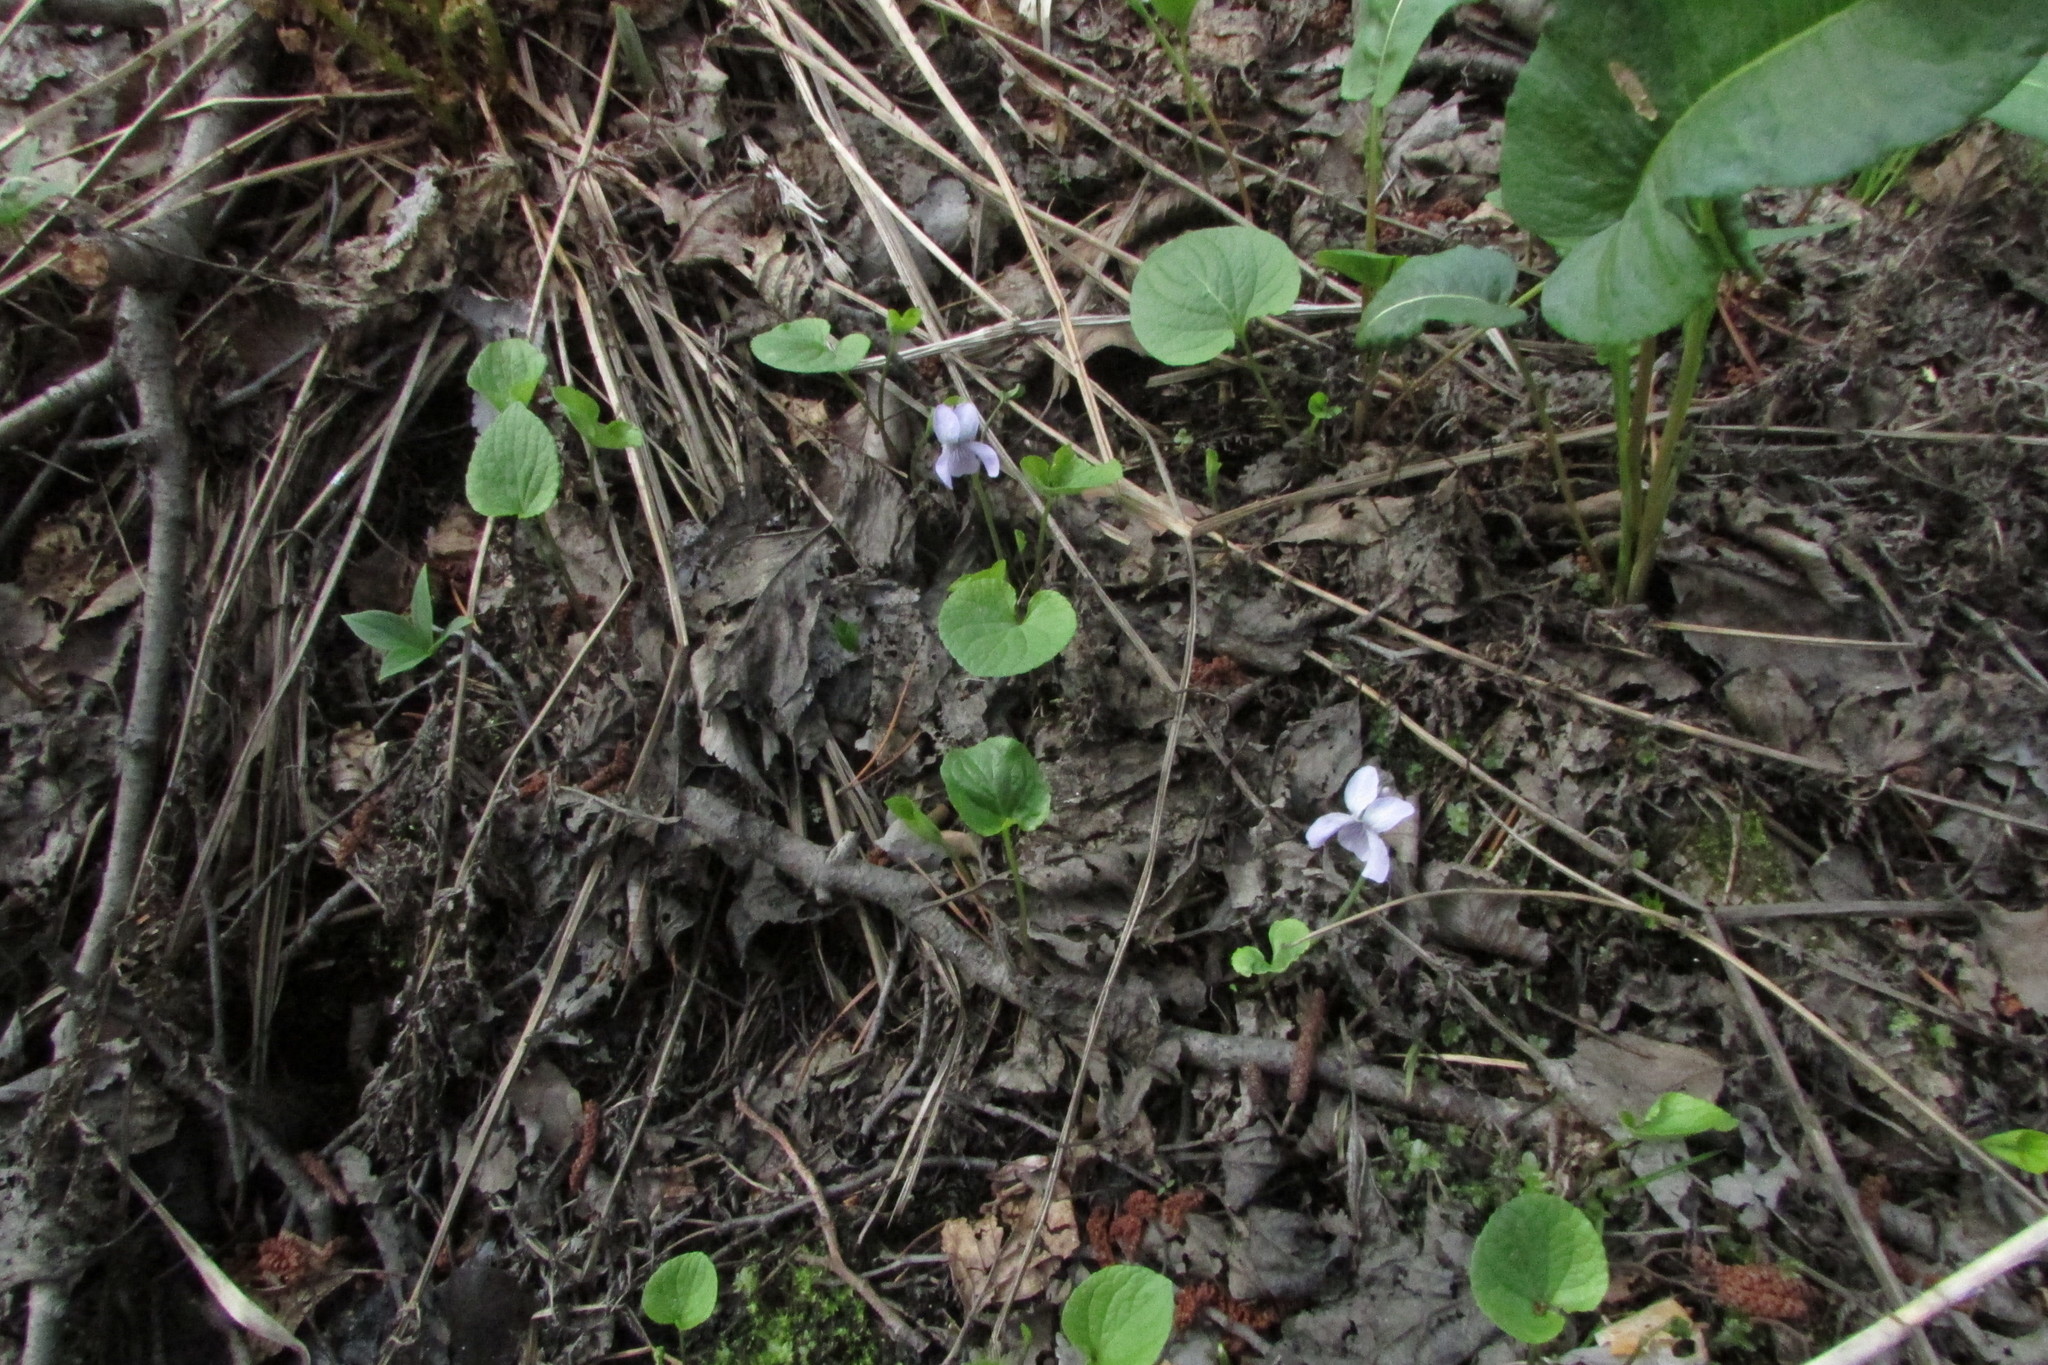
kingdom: Plantae
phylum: Tracheophyta
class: Magnoliopsida
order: Malpighiales
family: Violaceae
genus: Viola
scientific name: Viola epipsila
